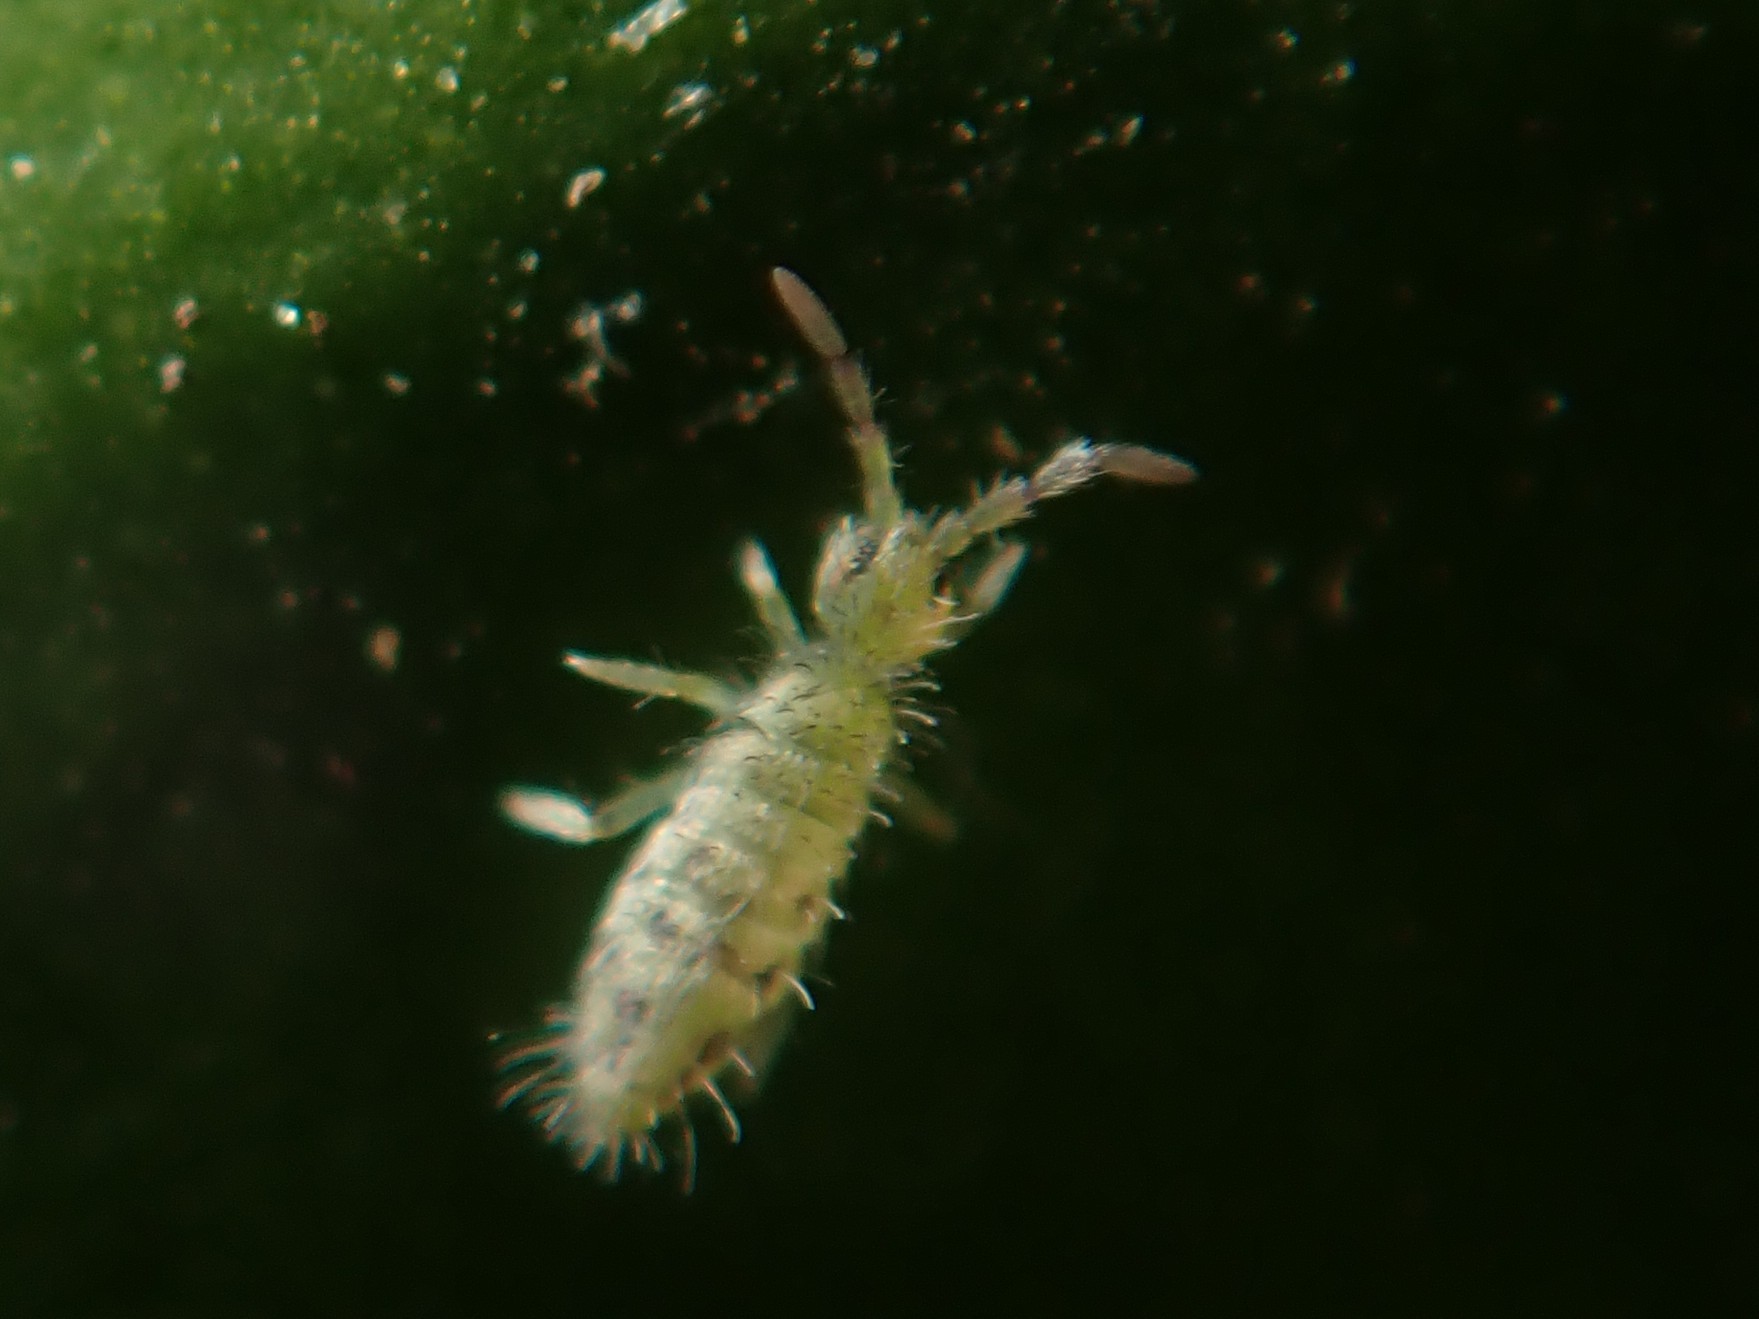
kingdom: Animalia
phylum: Arthropoda
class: Collembola
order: Entomobryomorpha
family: Entomobryidae
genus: Entomobrya
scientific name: Entomobrya nivalis
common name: Cosmopolitan springtail
